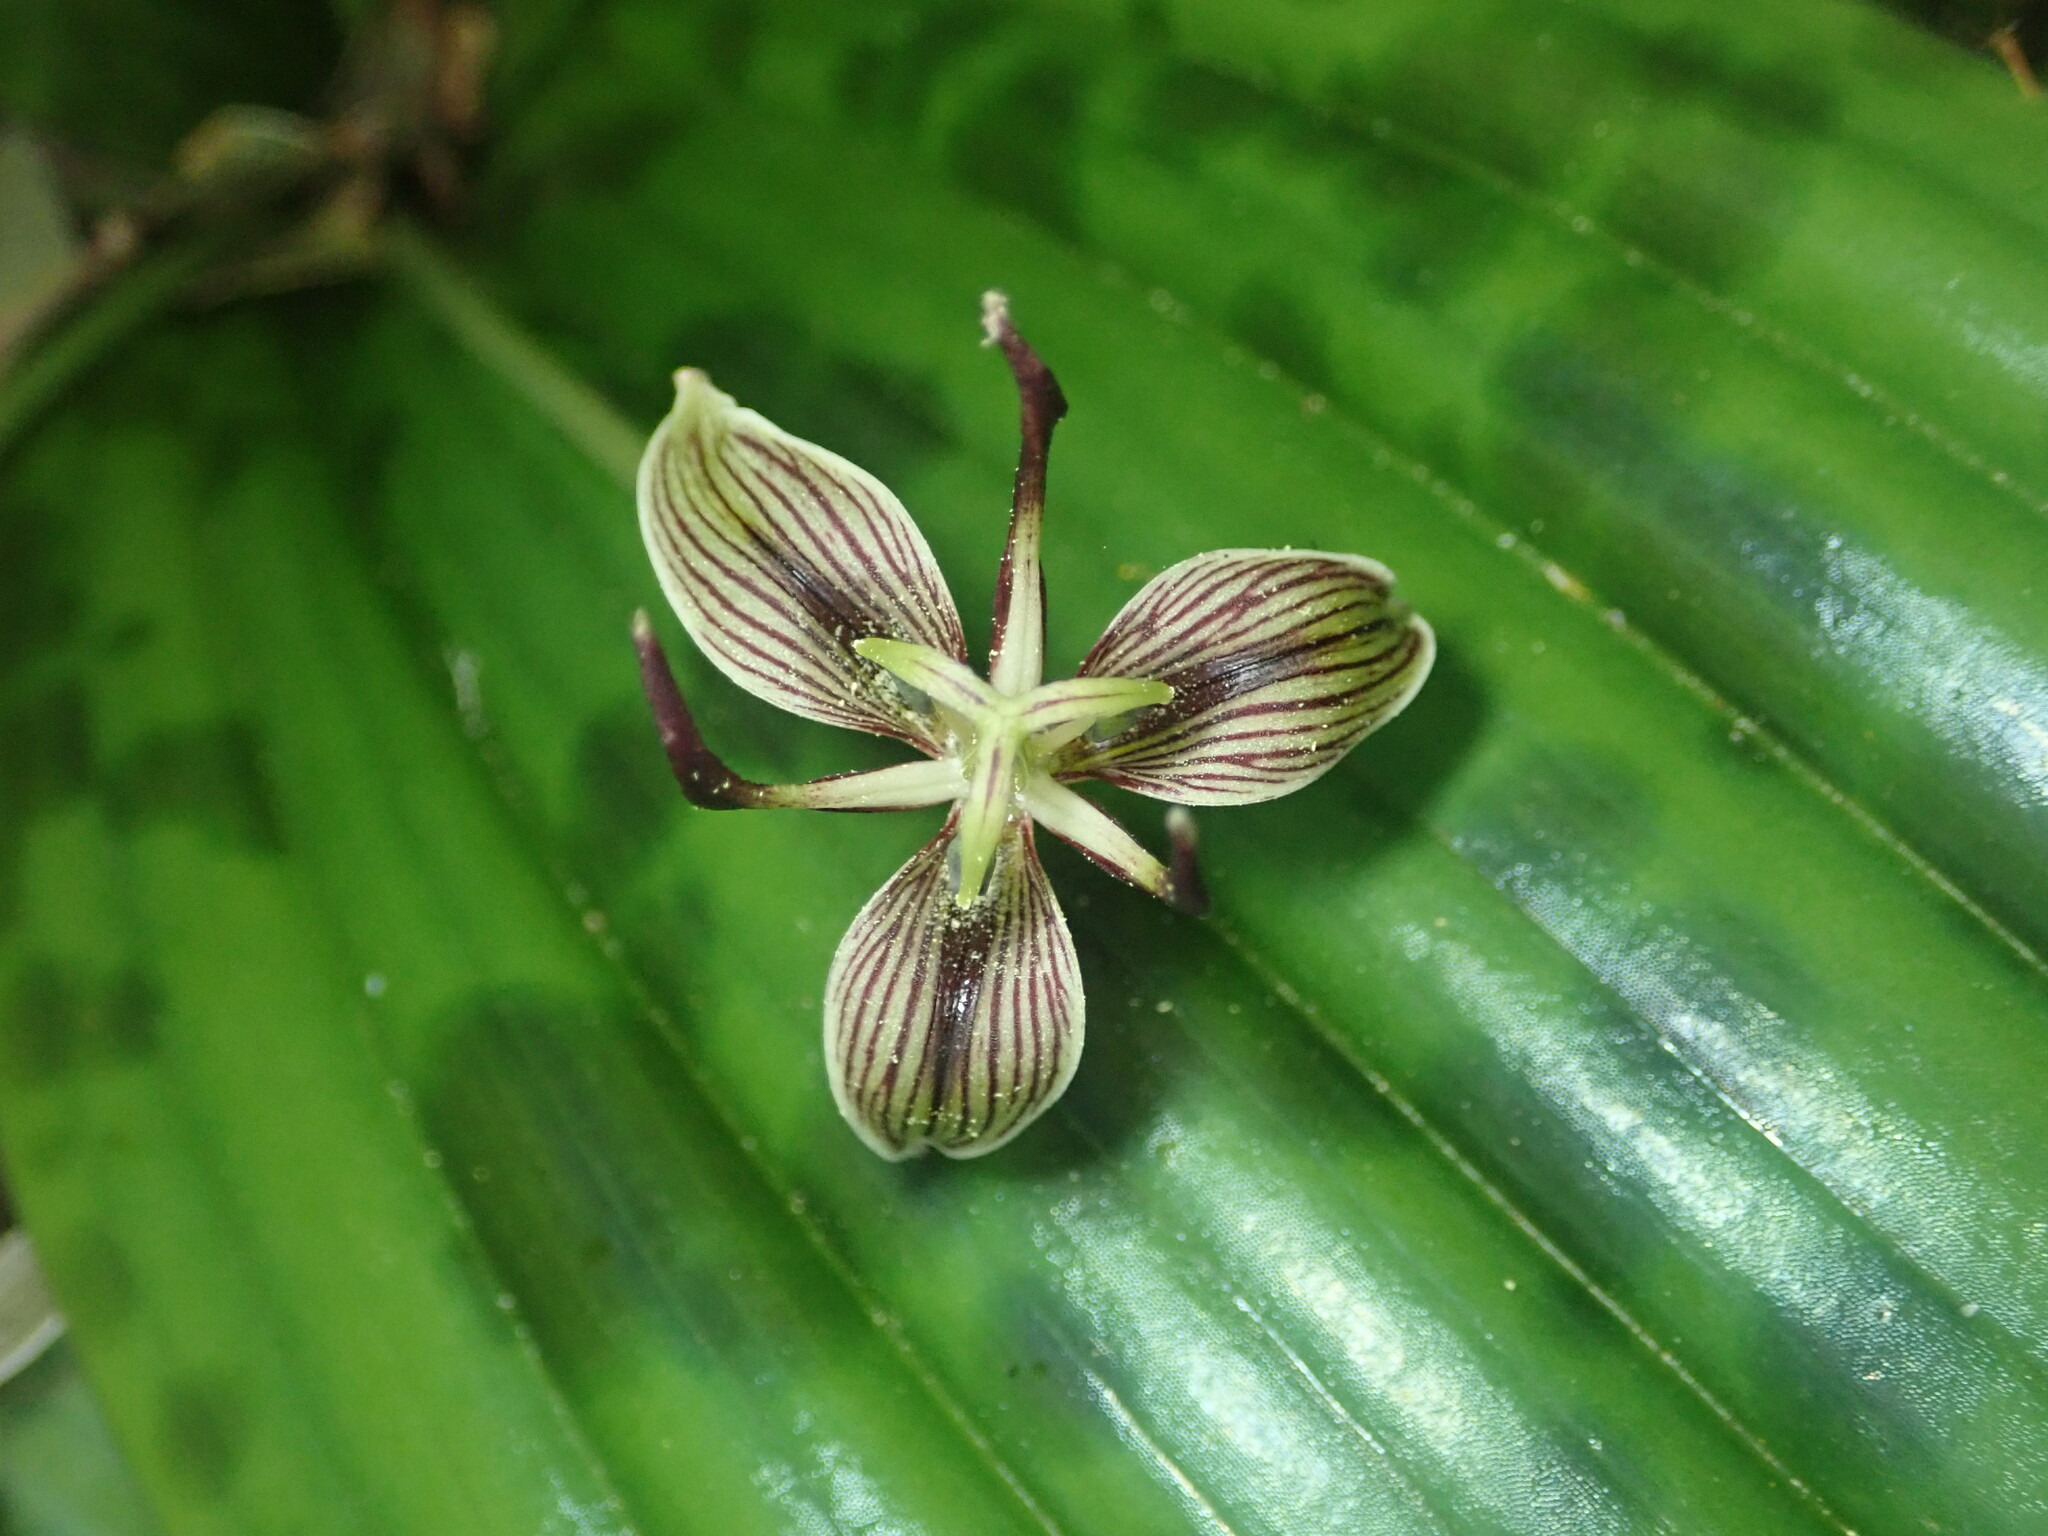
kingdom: Plantae
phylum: Tracheophyta
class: Liliopsida
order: Liliales
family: Liliaceae
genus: Scoliopus
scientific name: Scoliopus bigelovii
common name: Foetid adder's-tongue
